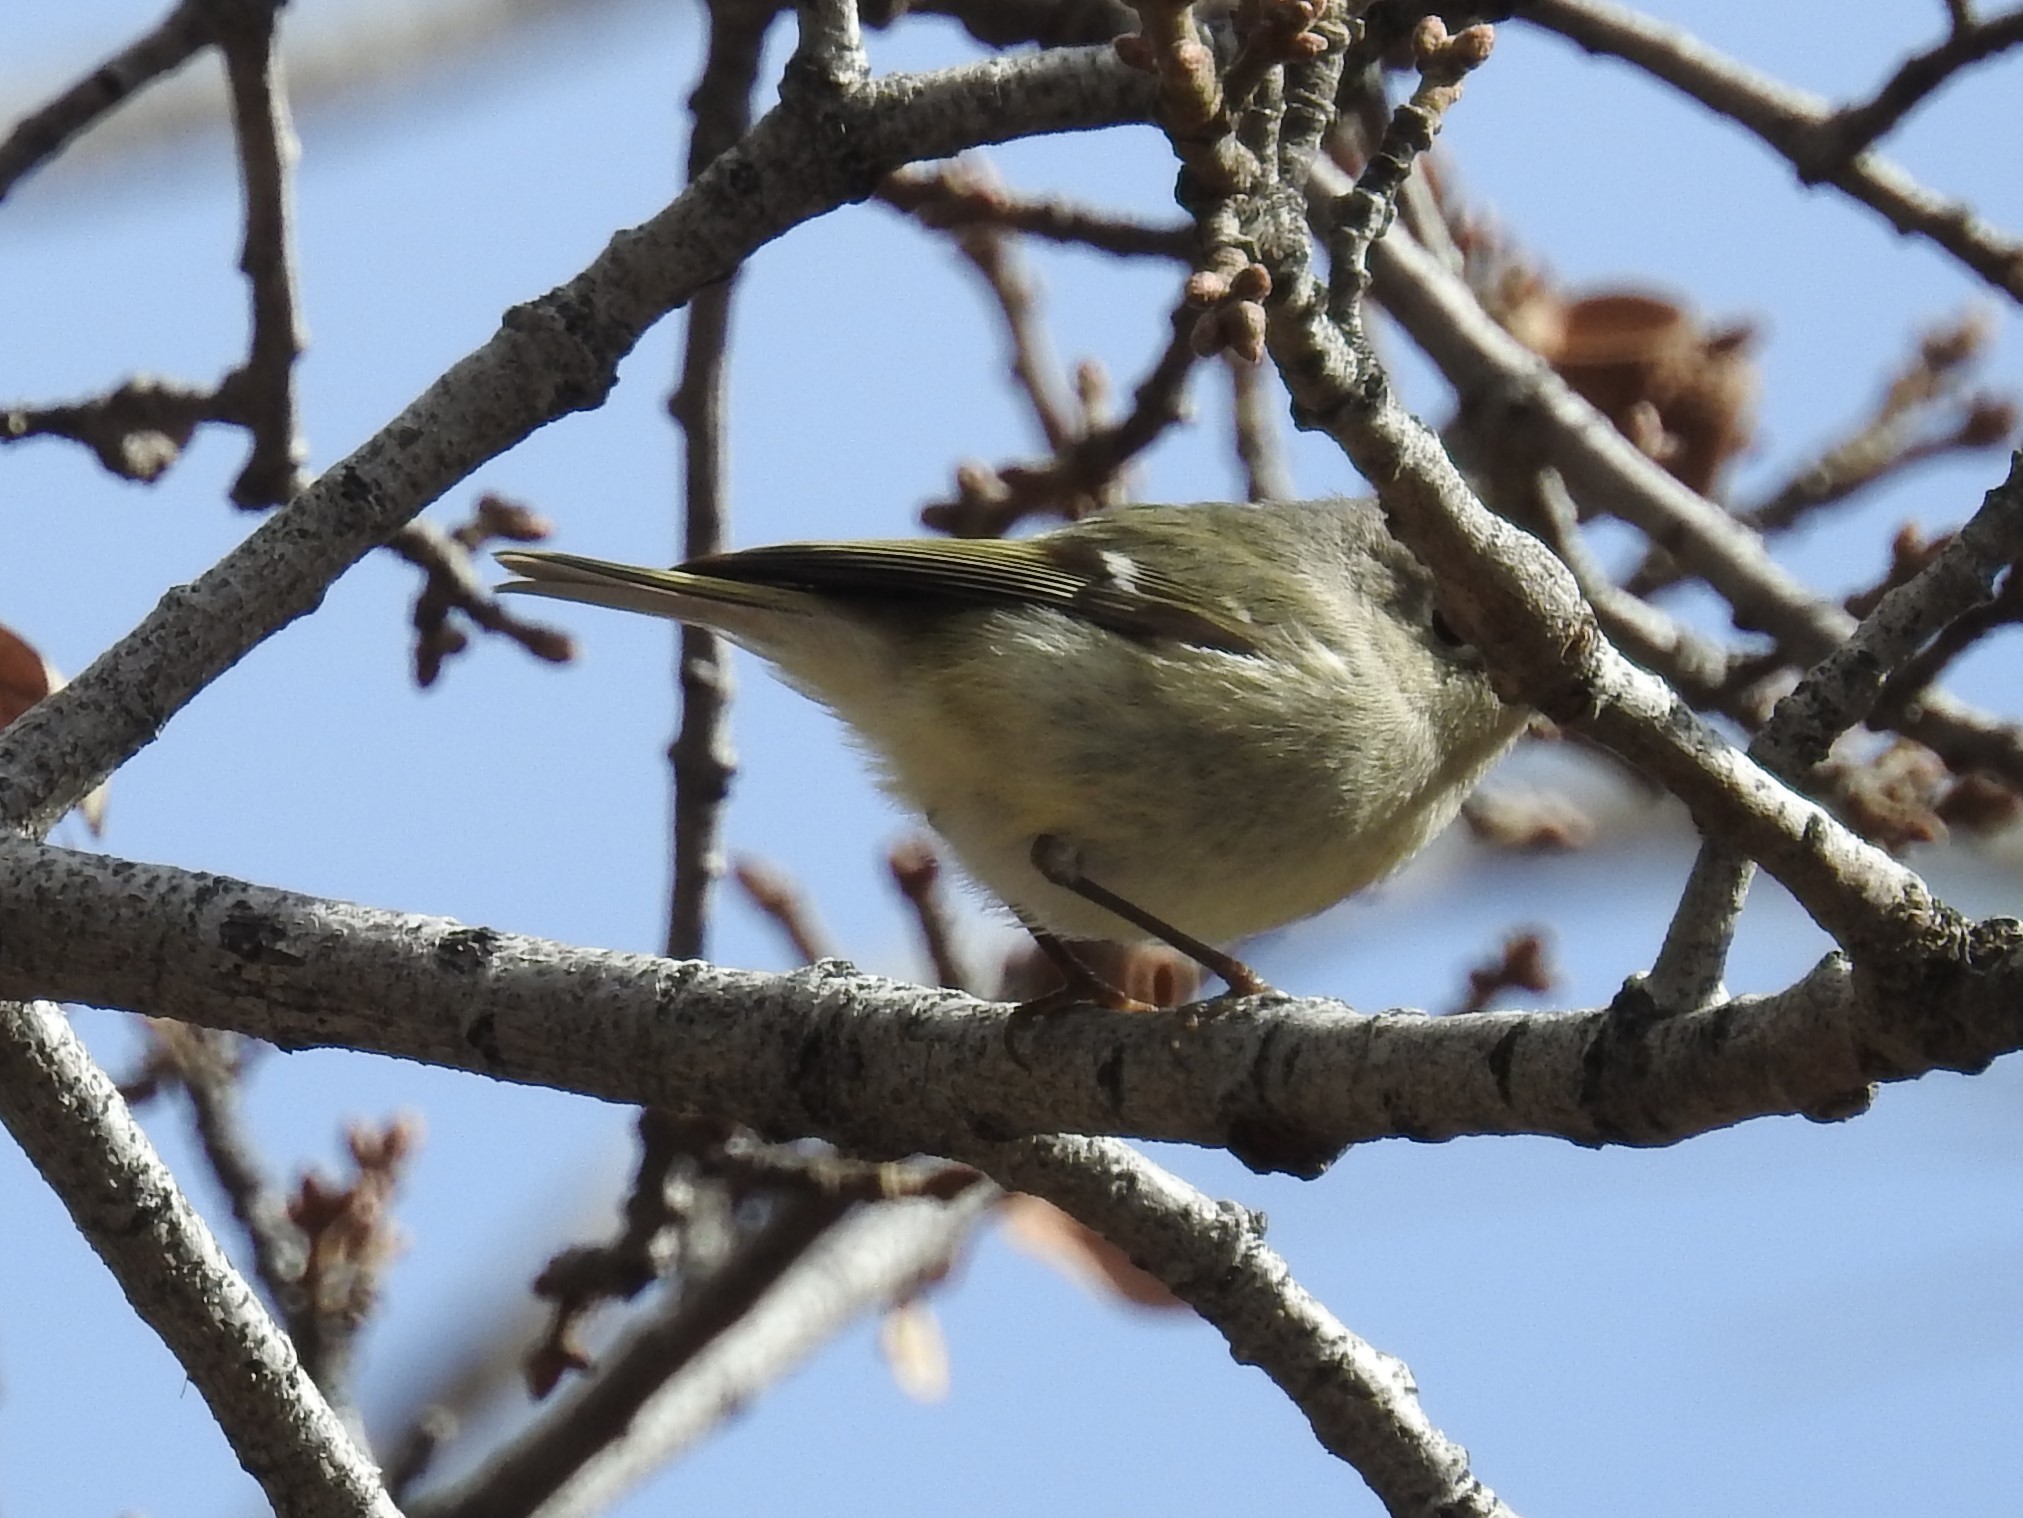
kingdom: Animalia
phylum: Chordata
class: Aves
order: Passeriformes
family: Regulidae
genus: Regulus
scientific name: Regulus calendula
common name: Ruby-crowned kinglet
